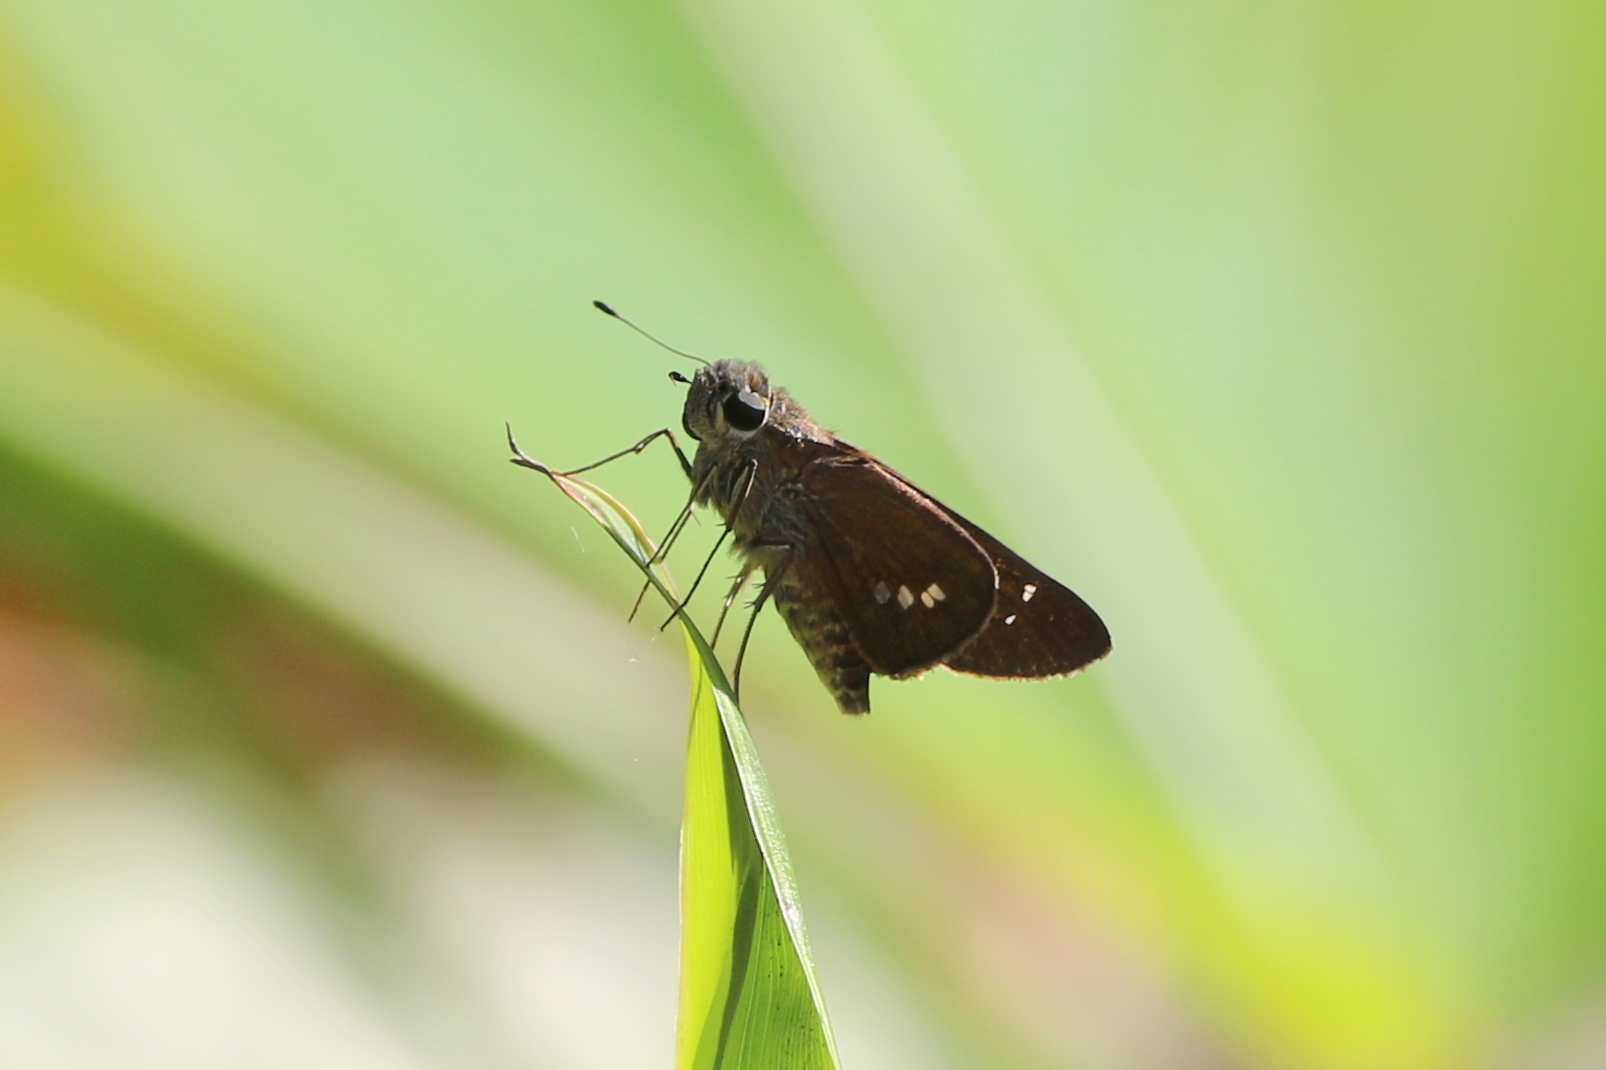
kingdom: Animalia
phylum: Arthropoda
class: Insecta
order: Lepidoptera
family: Hesperiidae
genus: Calpodes
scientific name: Calpodes ethlius
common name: Brazilian skipper
